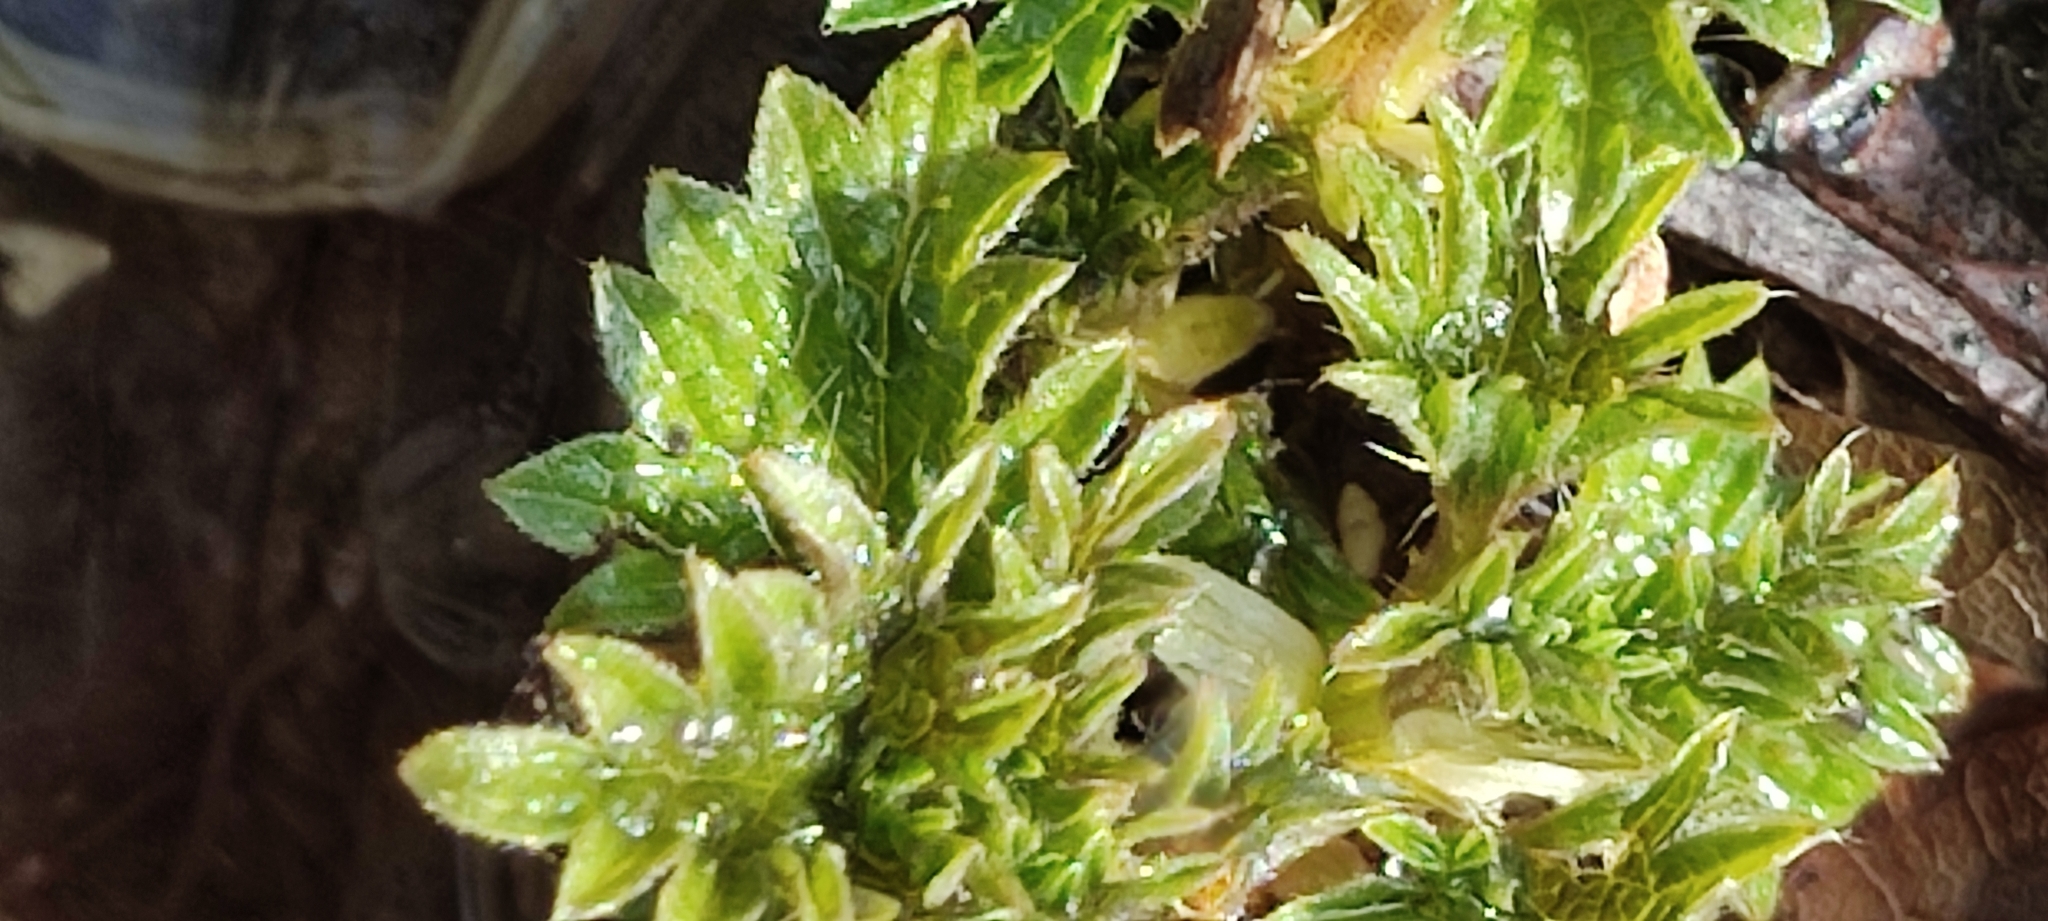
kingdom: Plantae
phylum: Tracheophyta
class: Magnoliopsida
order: Rosales
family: Urticaceae
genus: Urtica
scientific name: Urtica dioica
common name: Common nettle
